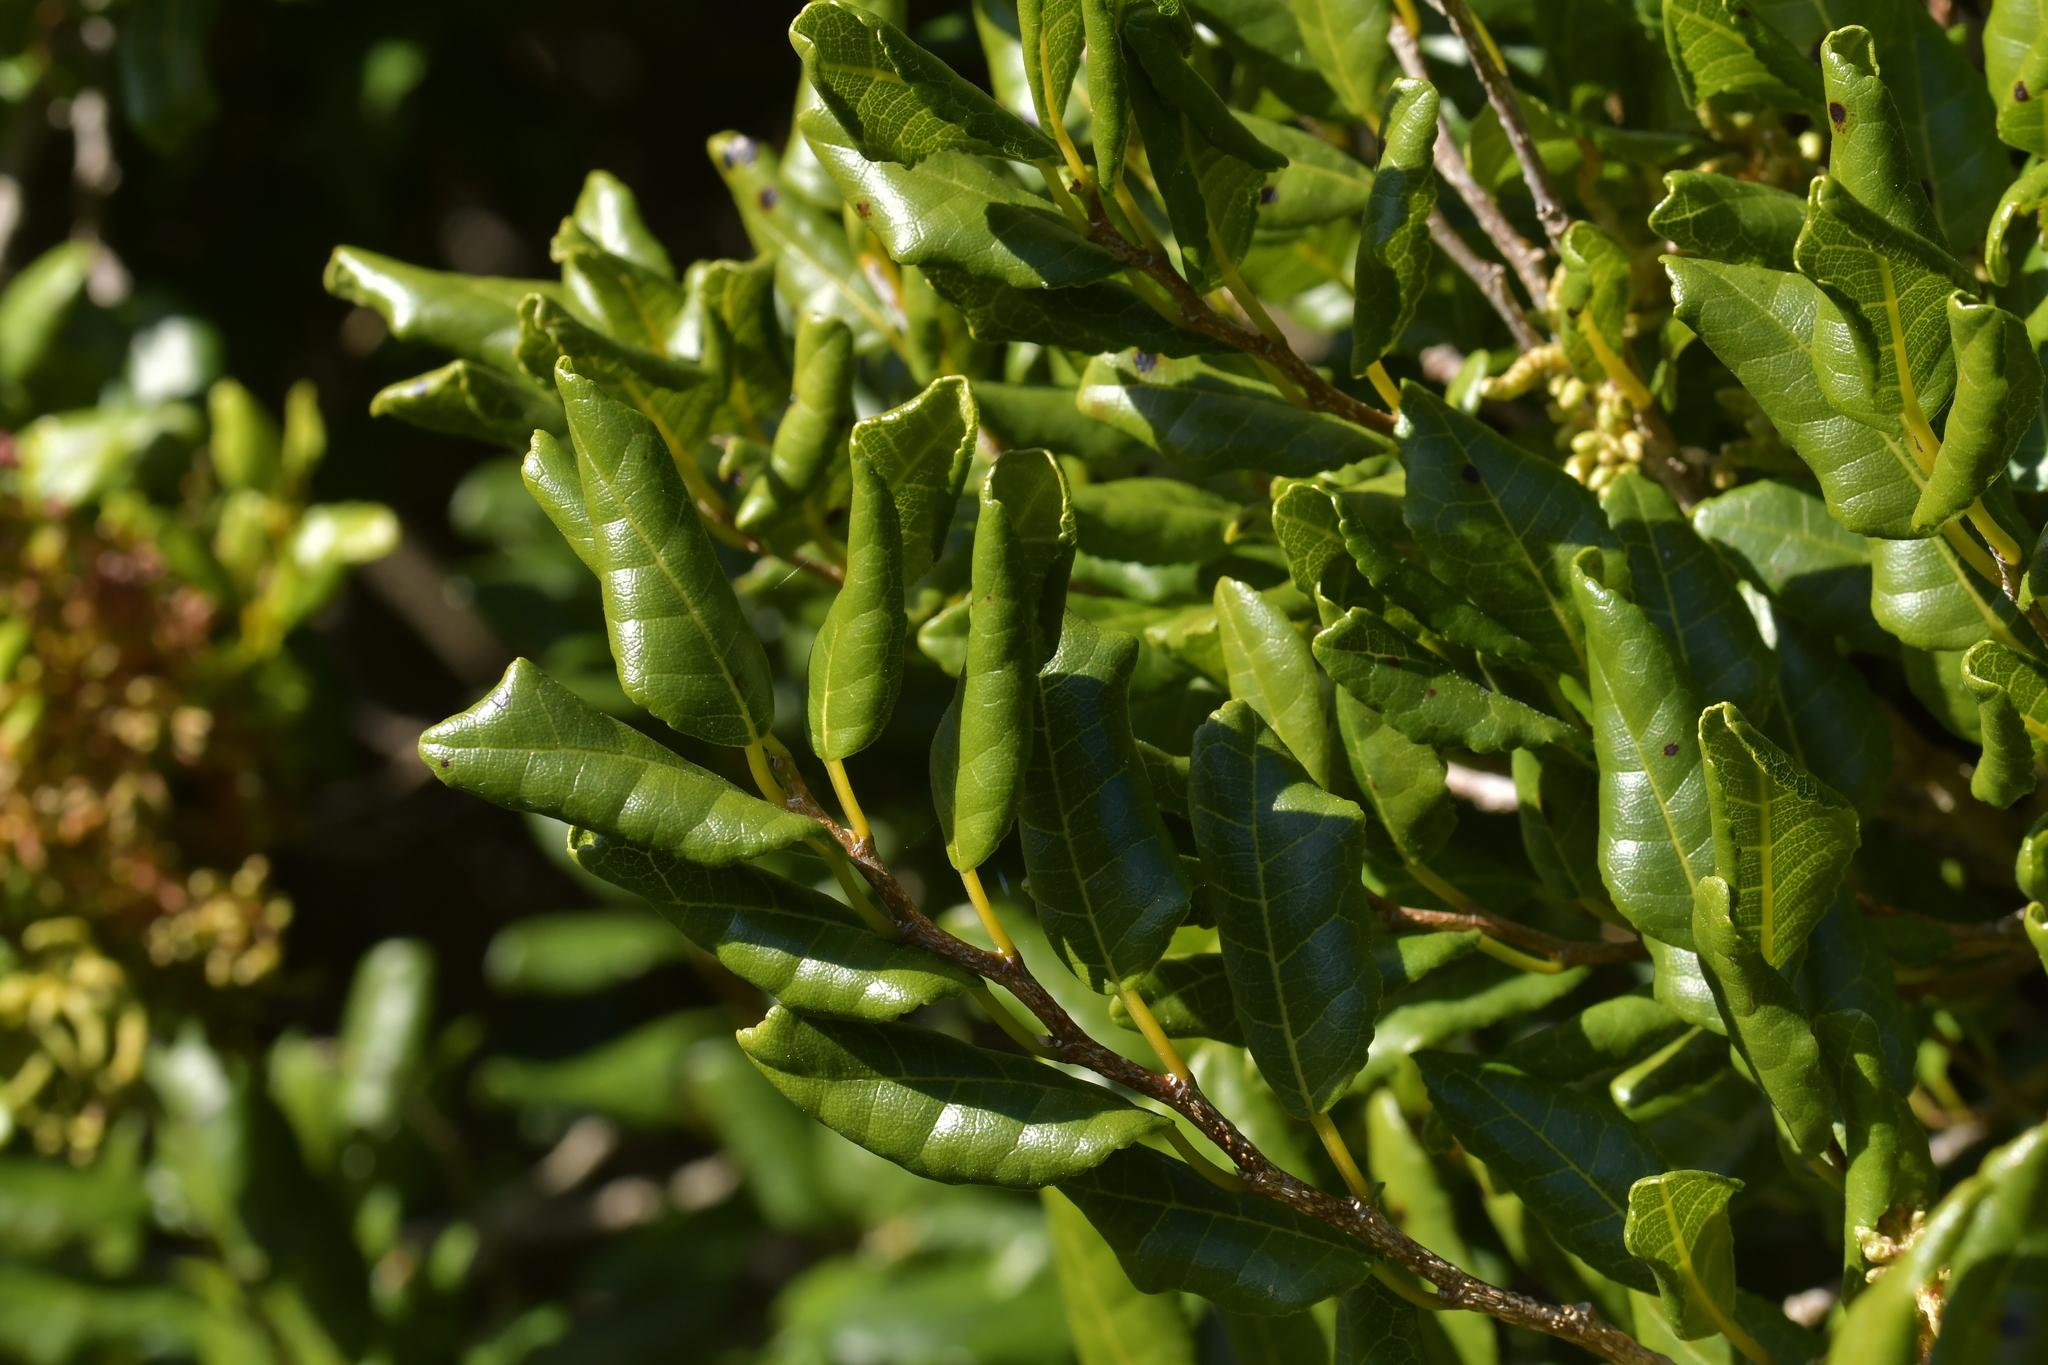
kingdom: Plantae
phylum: Tracheophyta
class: Magnoliopsida
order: Rosales
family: Moraceae
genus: Paratrophis
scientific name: Paratrophis banksii
